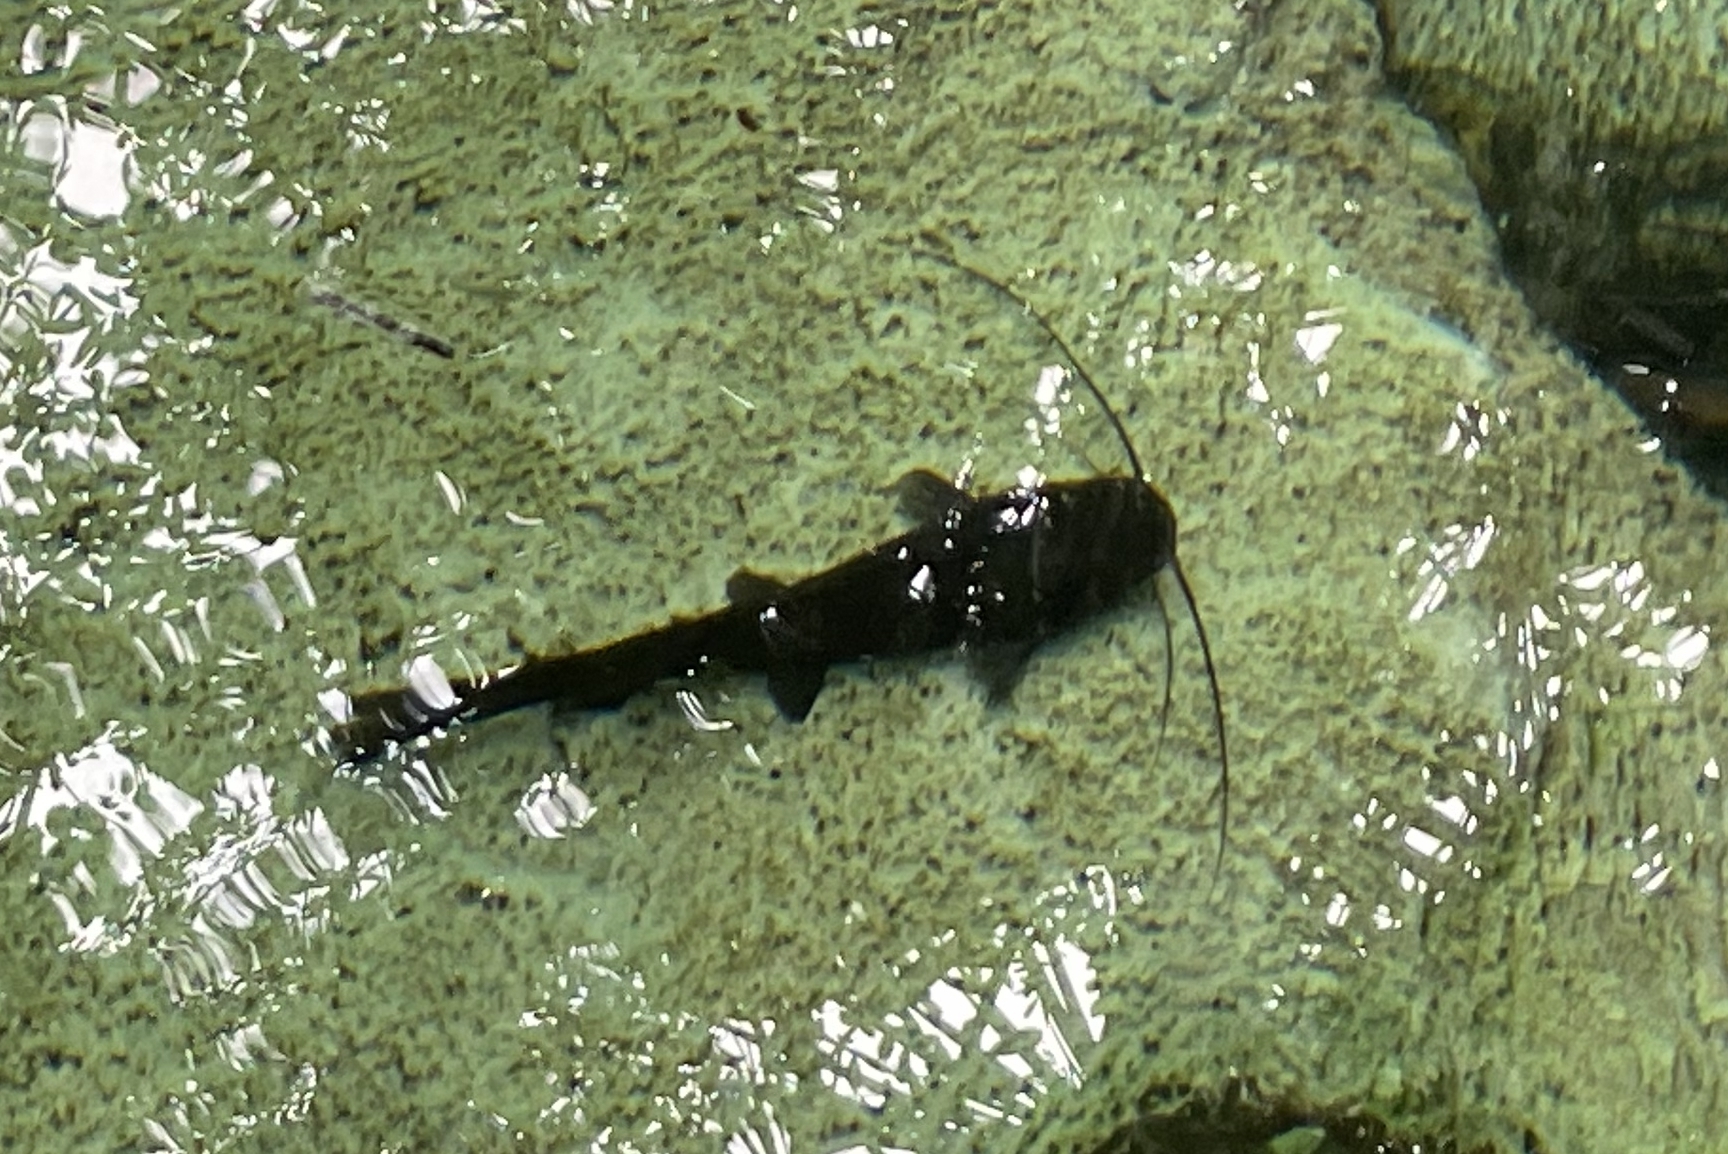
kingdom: Animalia
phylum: Chordata
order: Siluriformes
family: Heptapteridae
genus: Rhamdia
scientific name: Rhamdia guatemalensis
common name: Pale catfish
